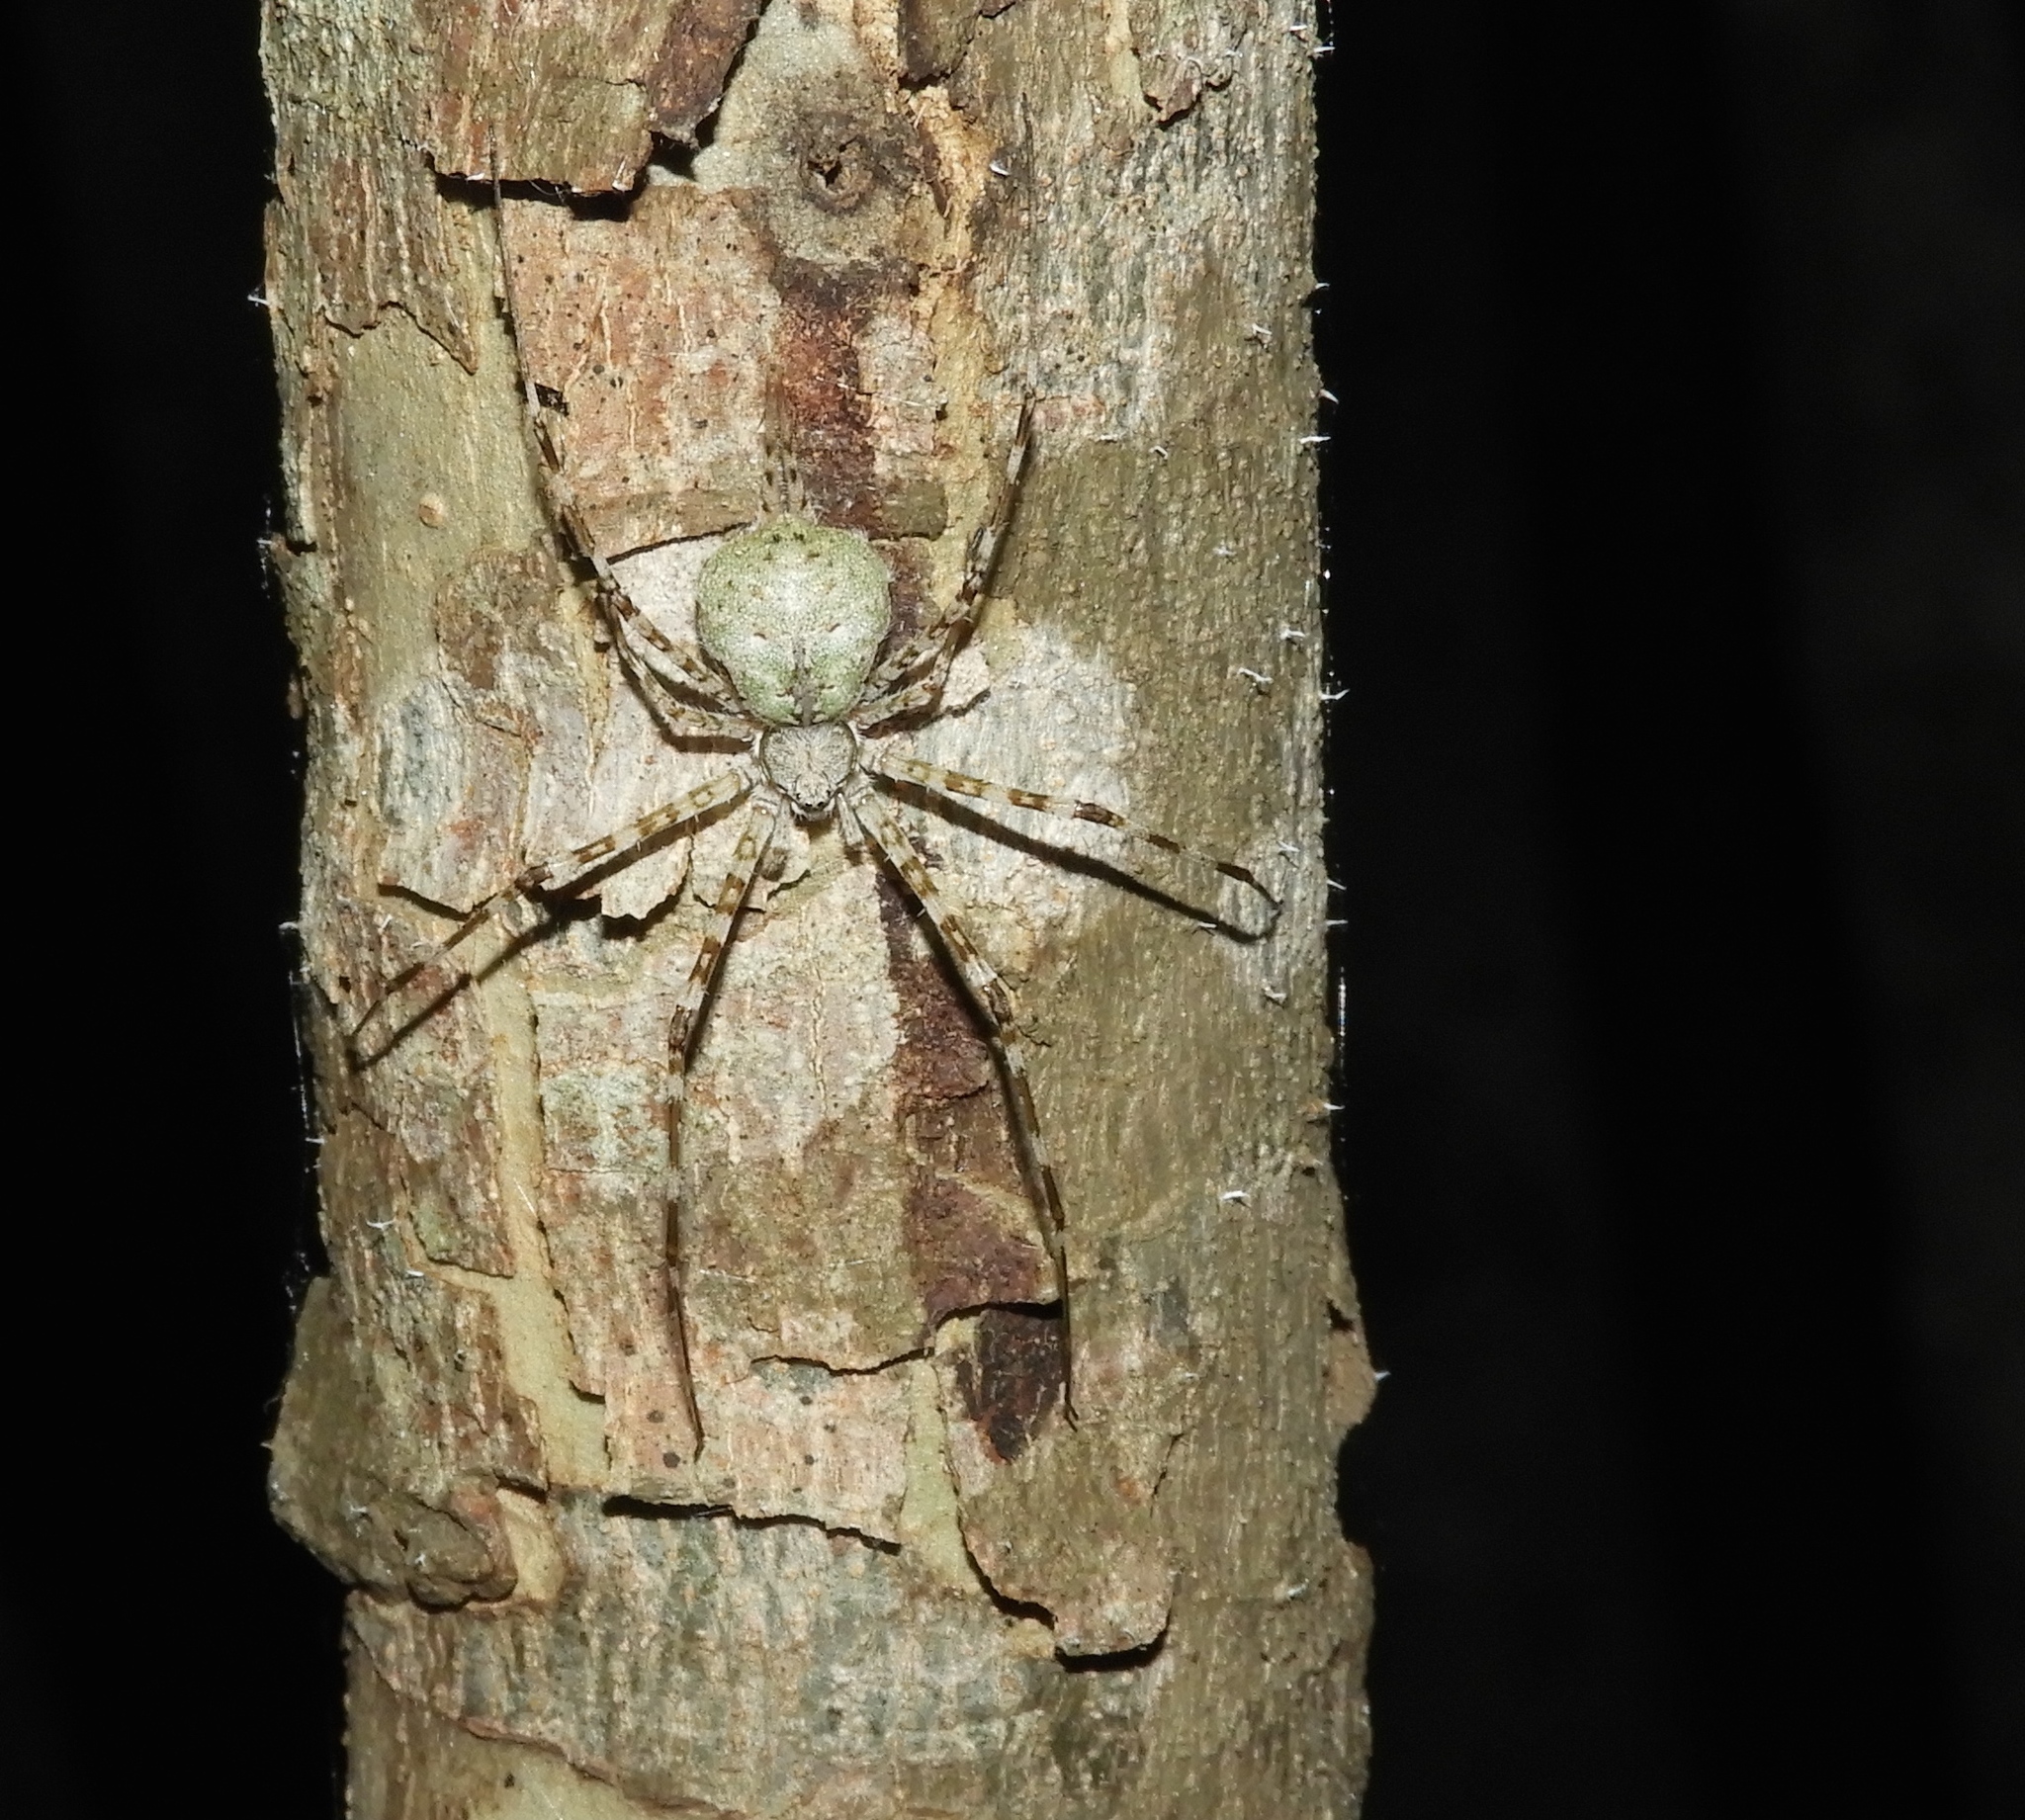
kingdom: Animalia
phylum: Arthropoda
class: Arachnida
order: Araneae
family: Hersiliidae
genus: Neotama
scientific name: Neotama mexicana
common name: Tree trunk spiders
